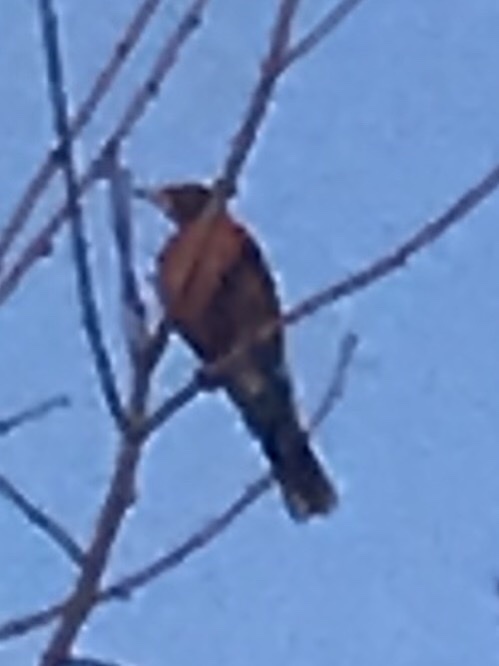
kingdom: Animalia
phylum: Chordata
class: Aves
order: Passeriformes
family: Turdidae
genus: Turdus
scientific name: Turdus migratorius
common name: American robin
